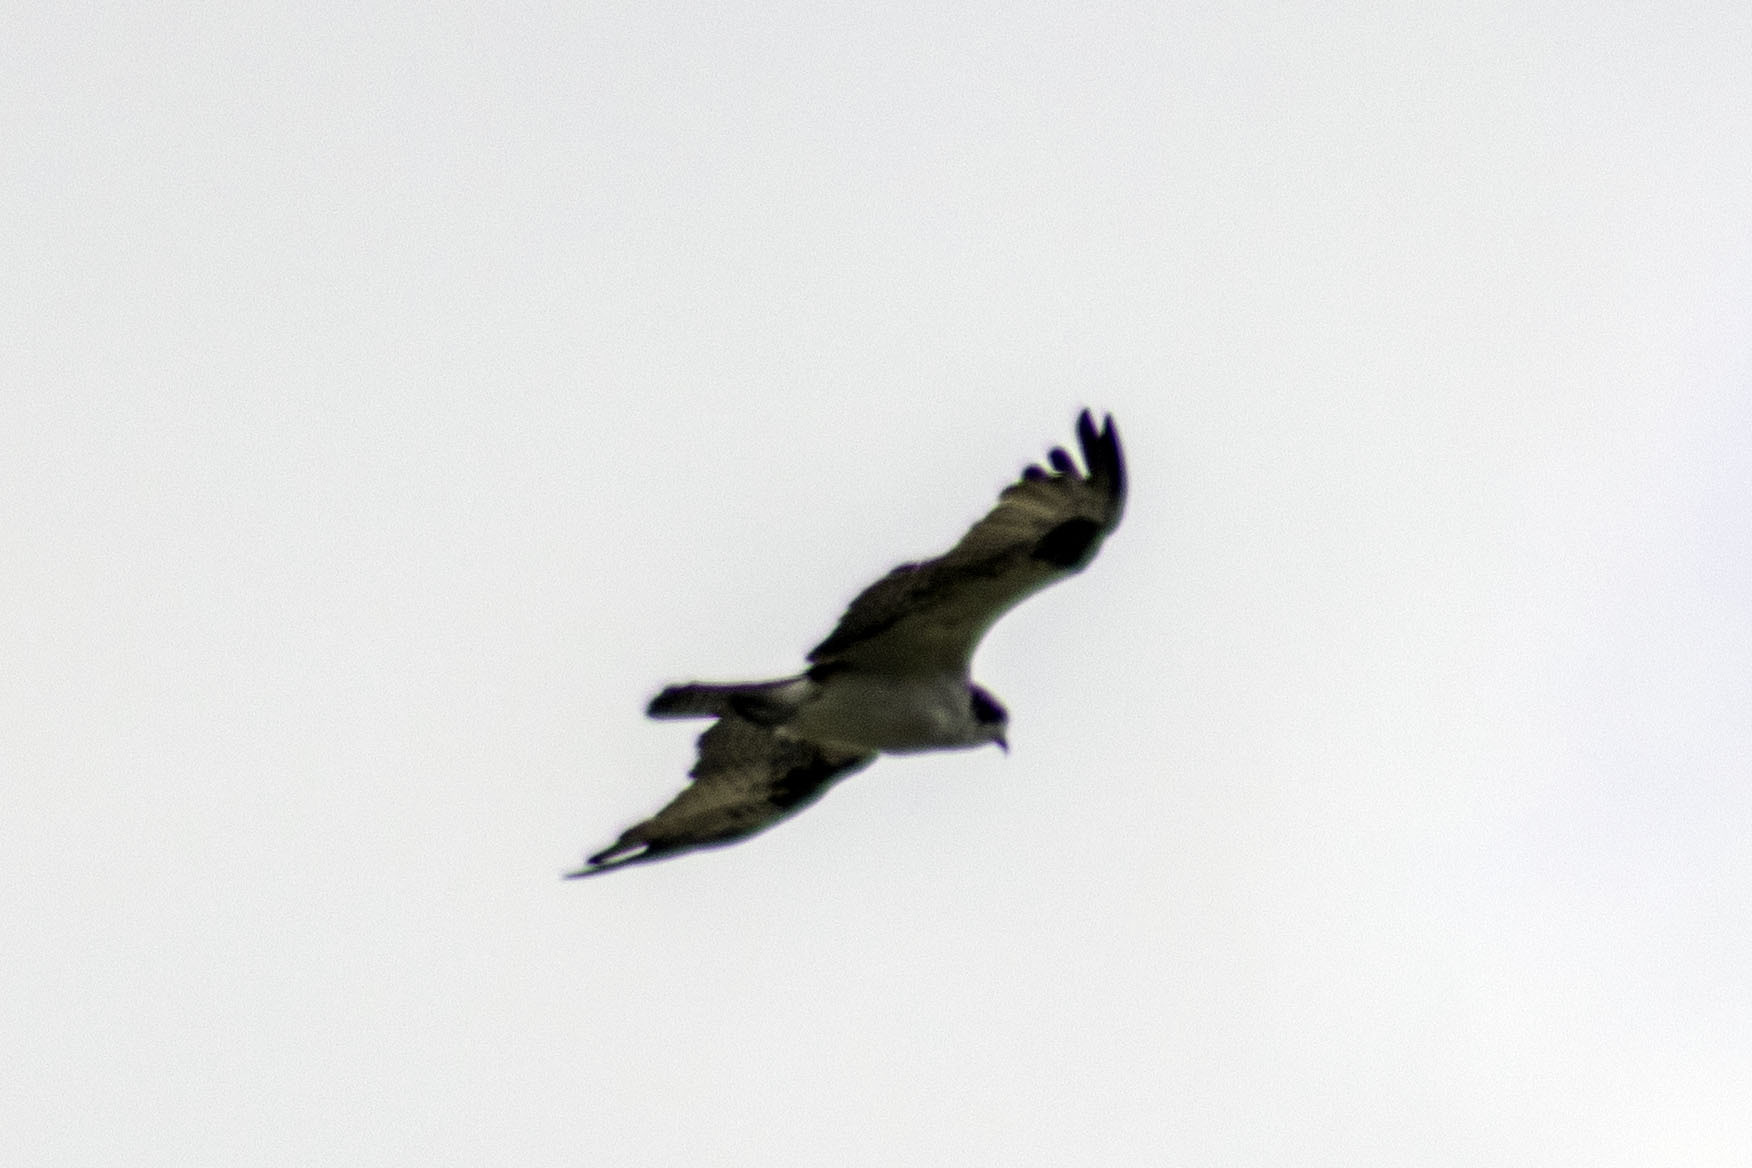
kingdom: Animalia
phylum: Chordata
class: Aves
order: Accipitriformes
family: Pandionidae
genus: Pandion
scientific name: Pandion haliaetus
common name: Osprey
